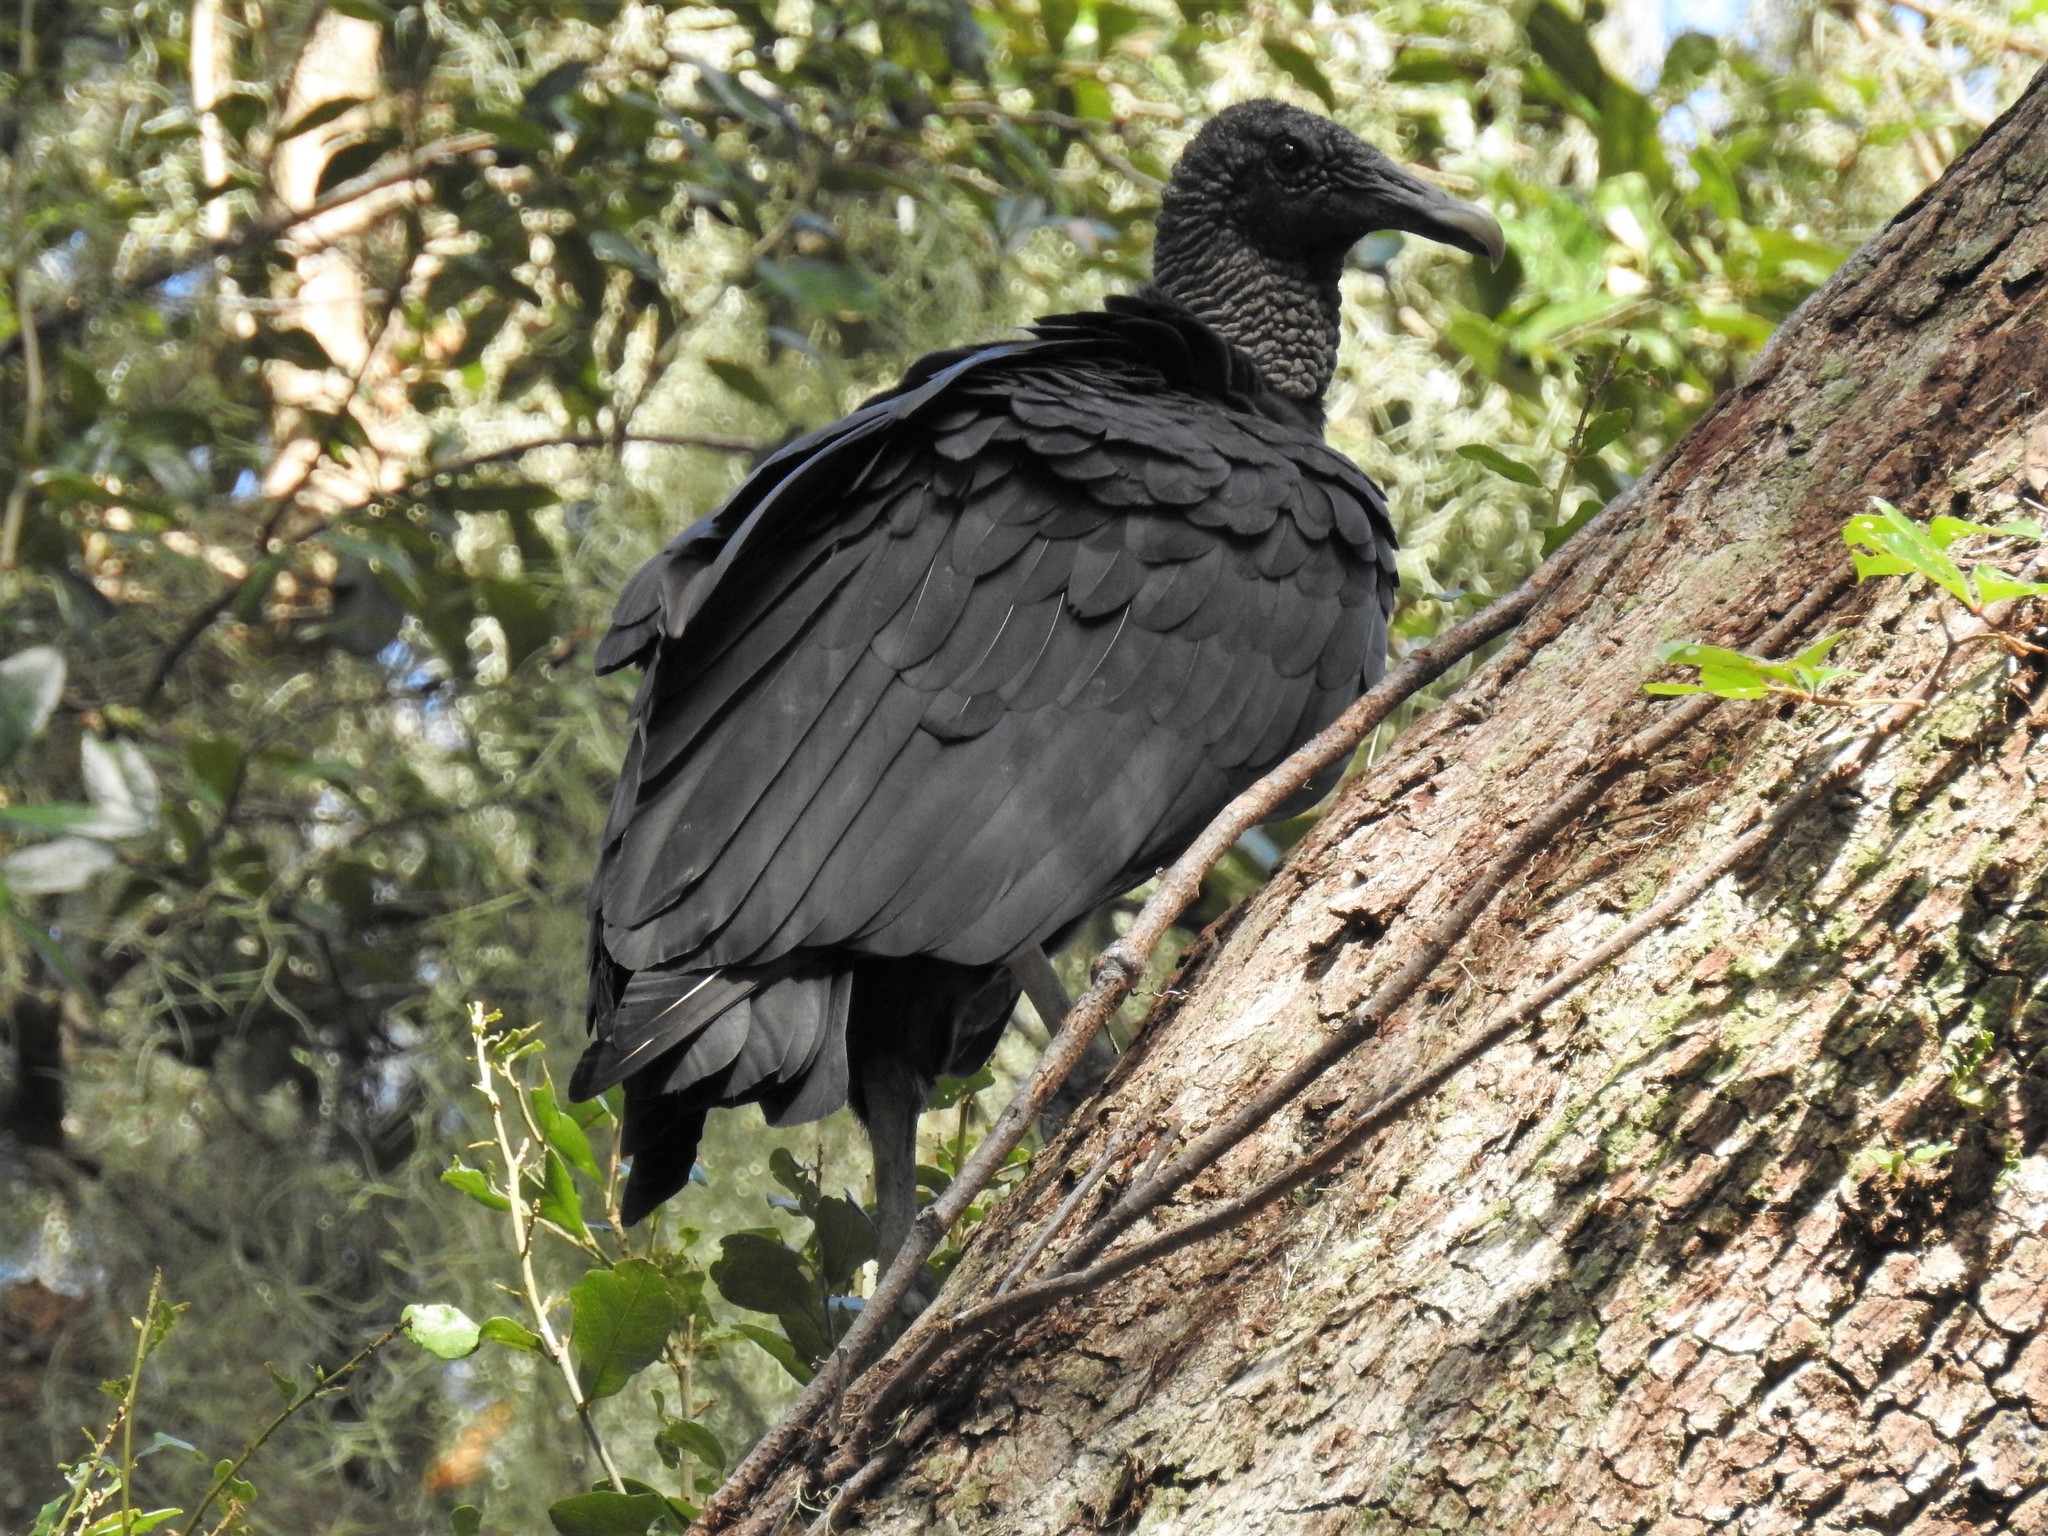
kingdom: Animalia
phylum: Chordata
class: Aves
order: Accipitriformes
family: Cathartidae
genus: Coragyps
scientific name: Coragyps atratus
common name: Black vulture
